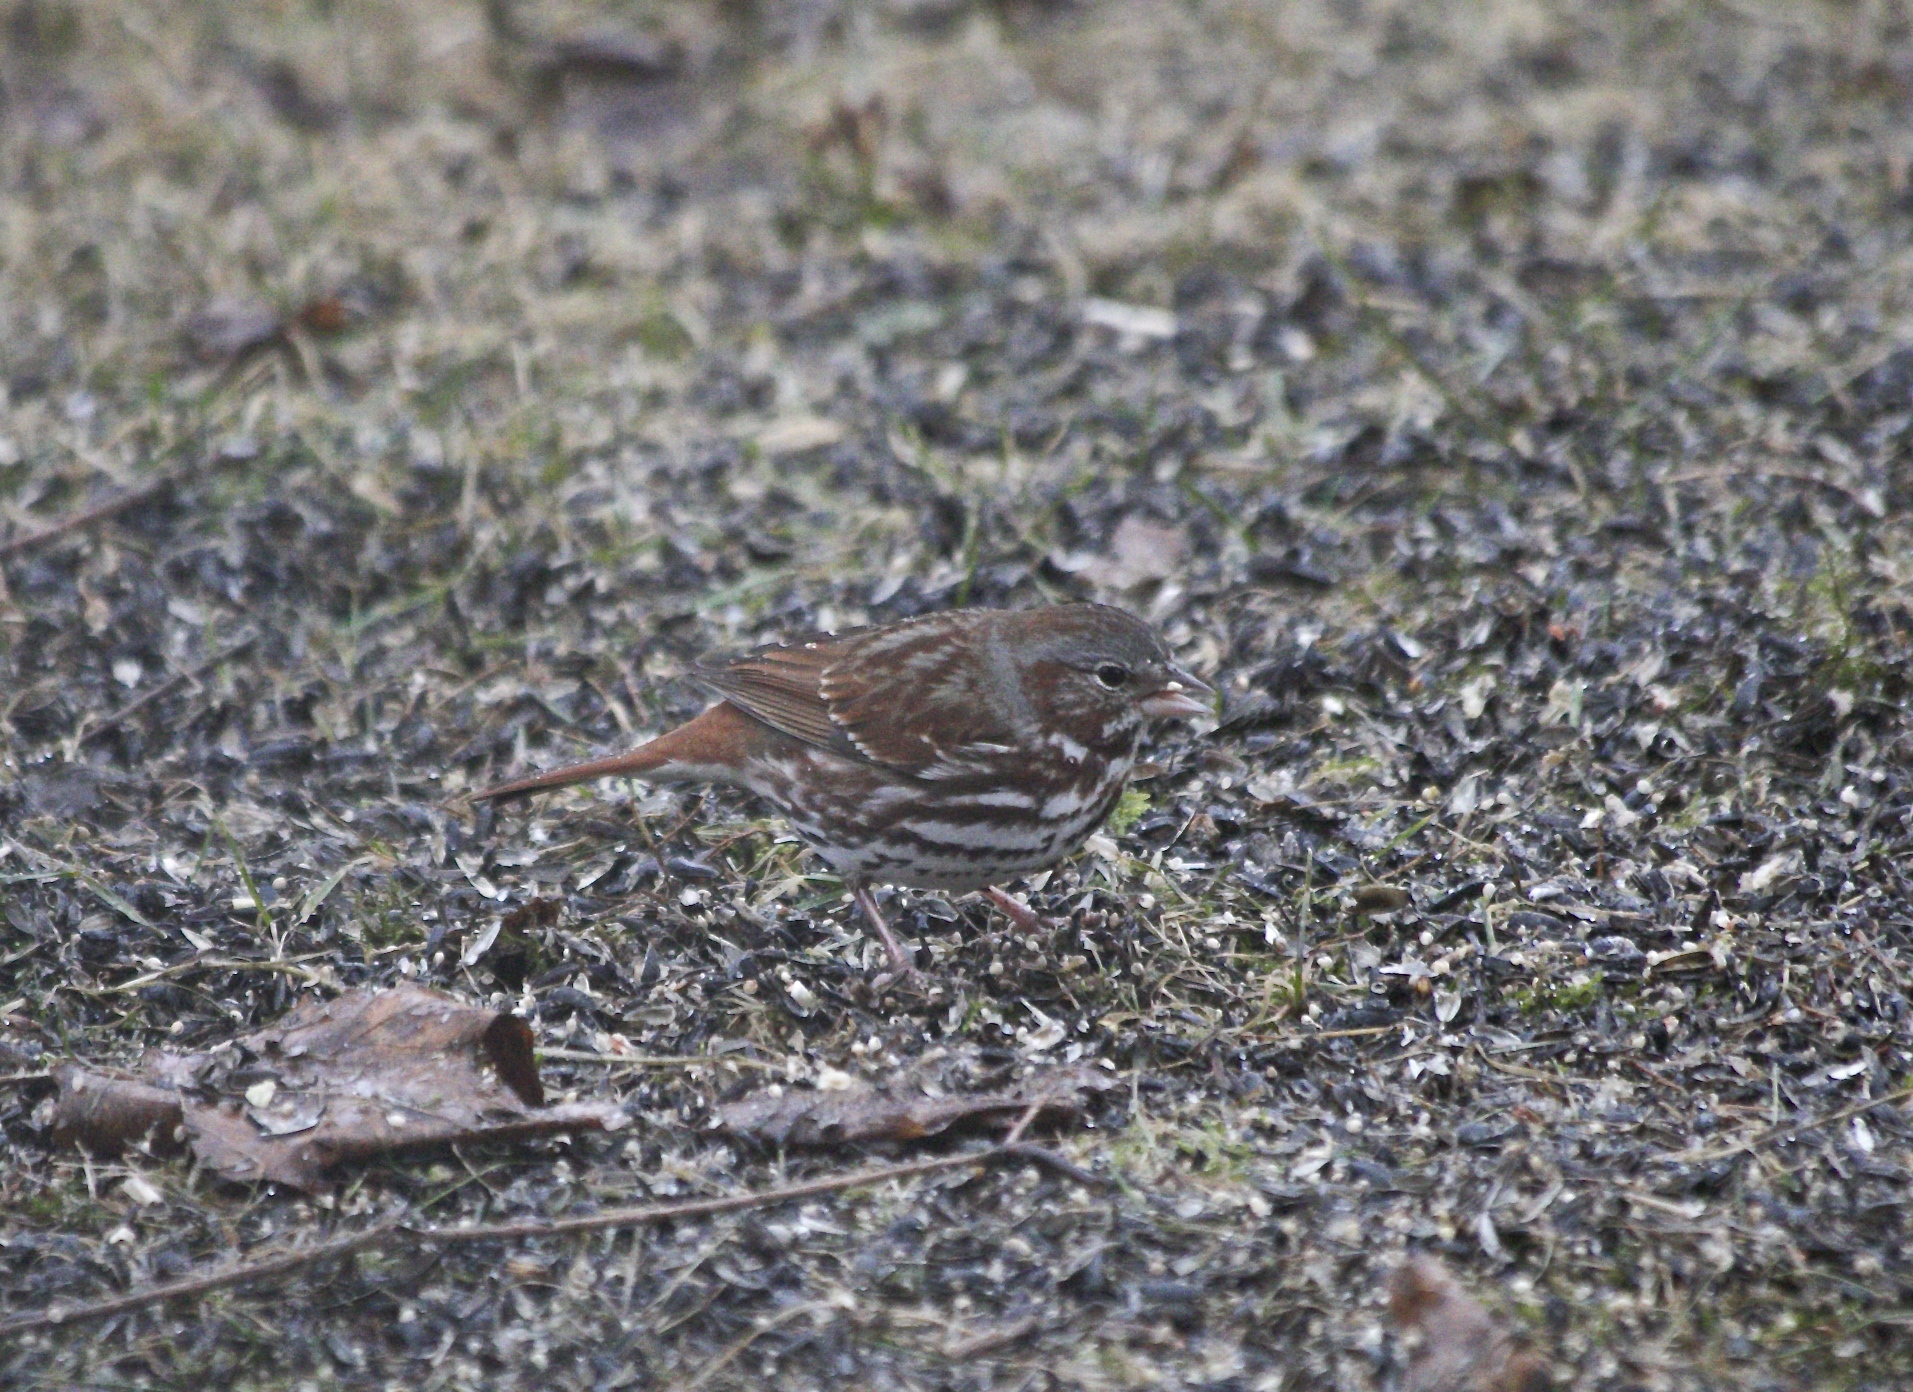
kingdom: Animalia
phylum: Chordata
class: Aves
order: Passeriformes
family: Passerellidae
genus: Passerella
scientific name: Passerella iliaca
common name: Fox sparrow
